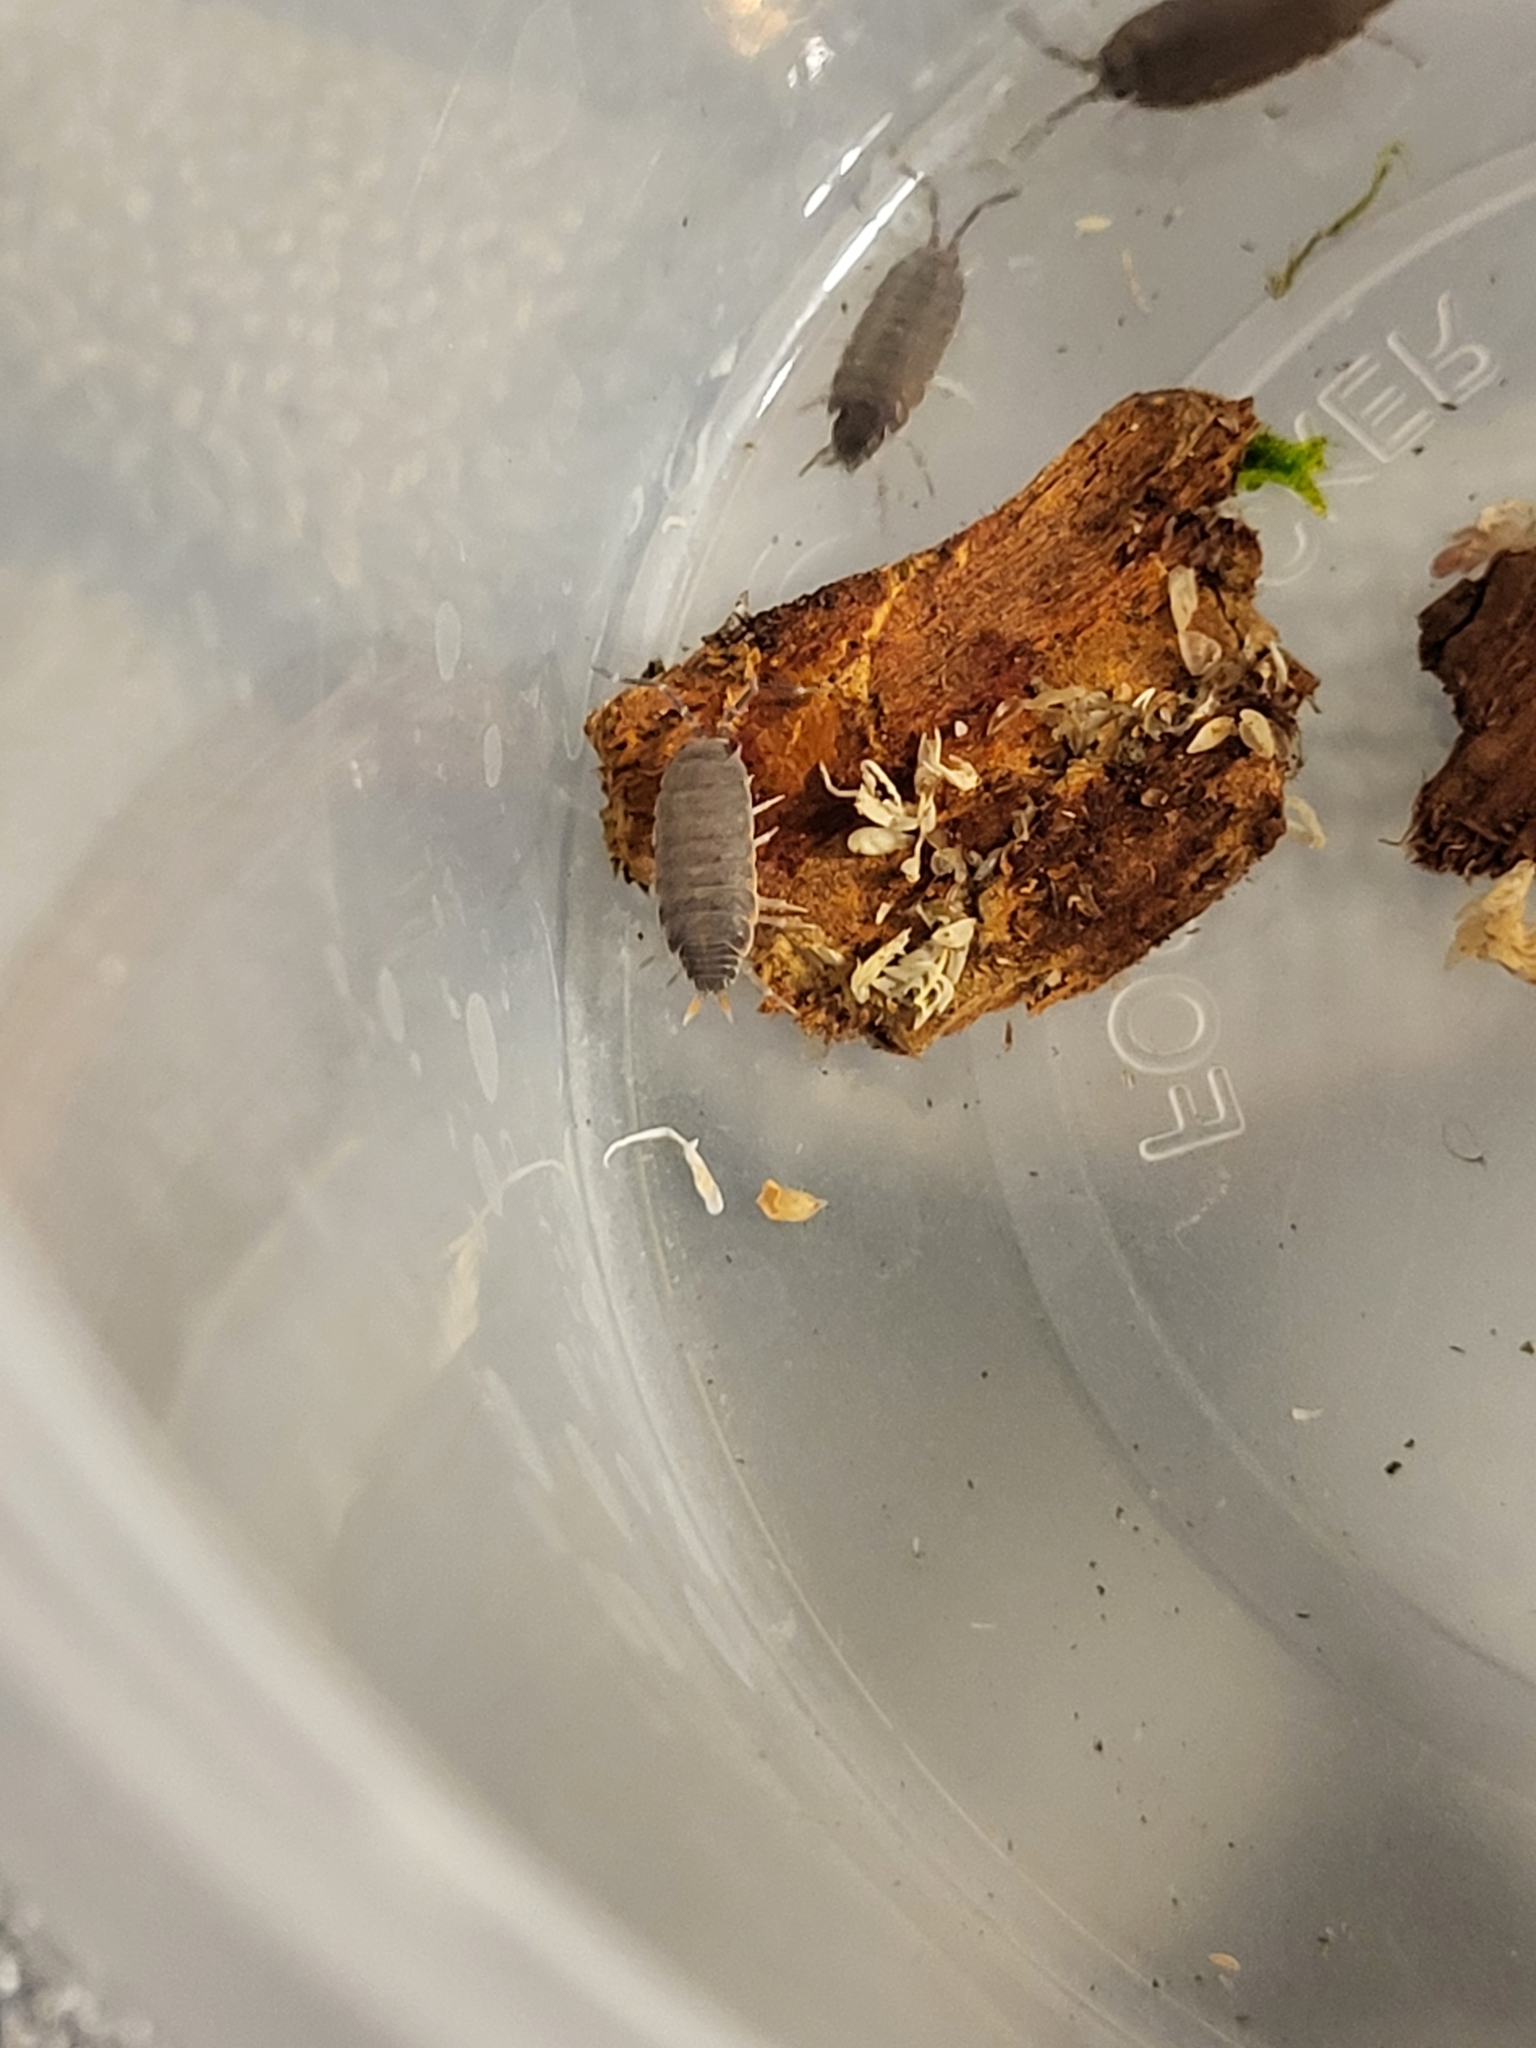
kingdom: Animalia
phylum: Arthropoda
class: Malacostraca
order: Isopoda
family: Porcellionidae
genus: Porcellionides
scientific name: Porcellionides floria
